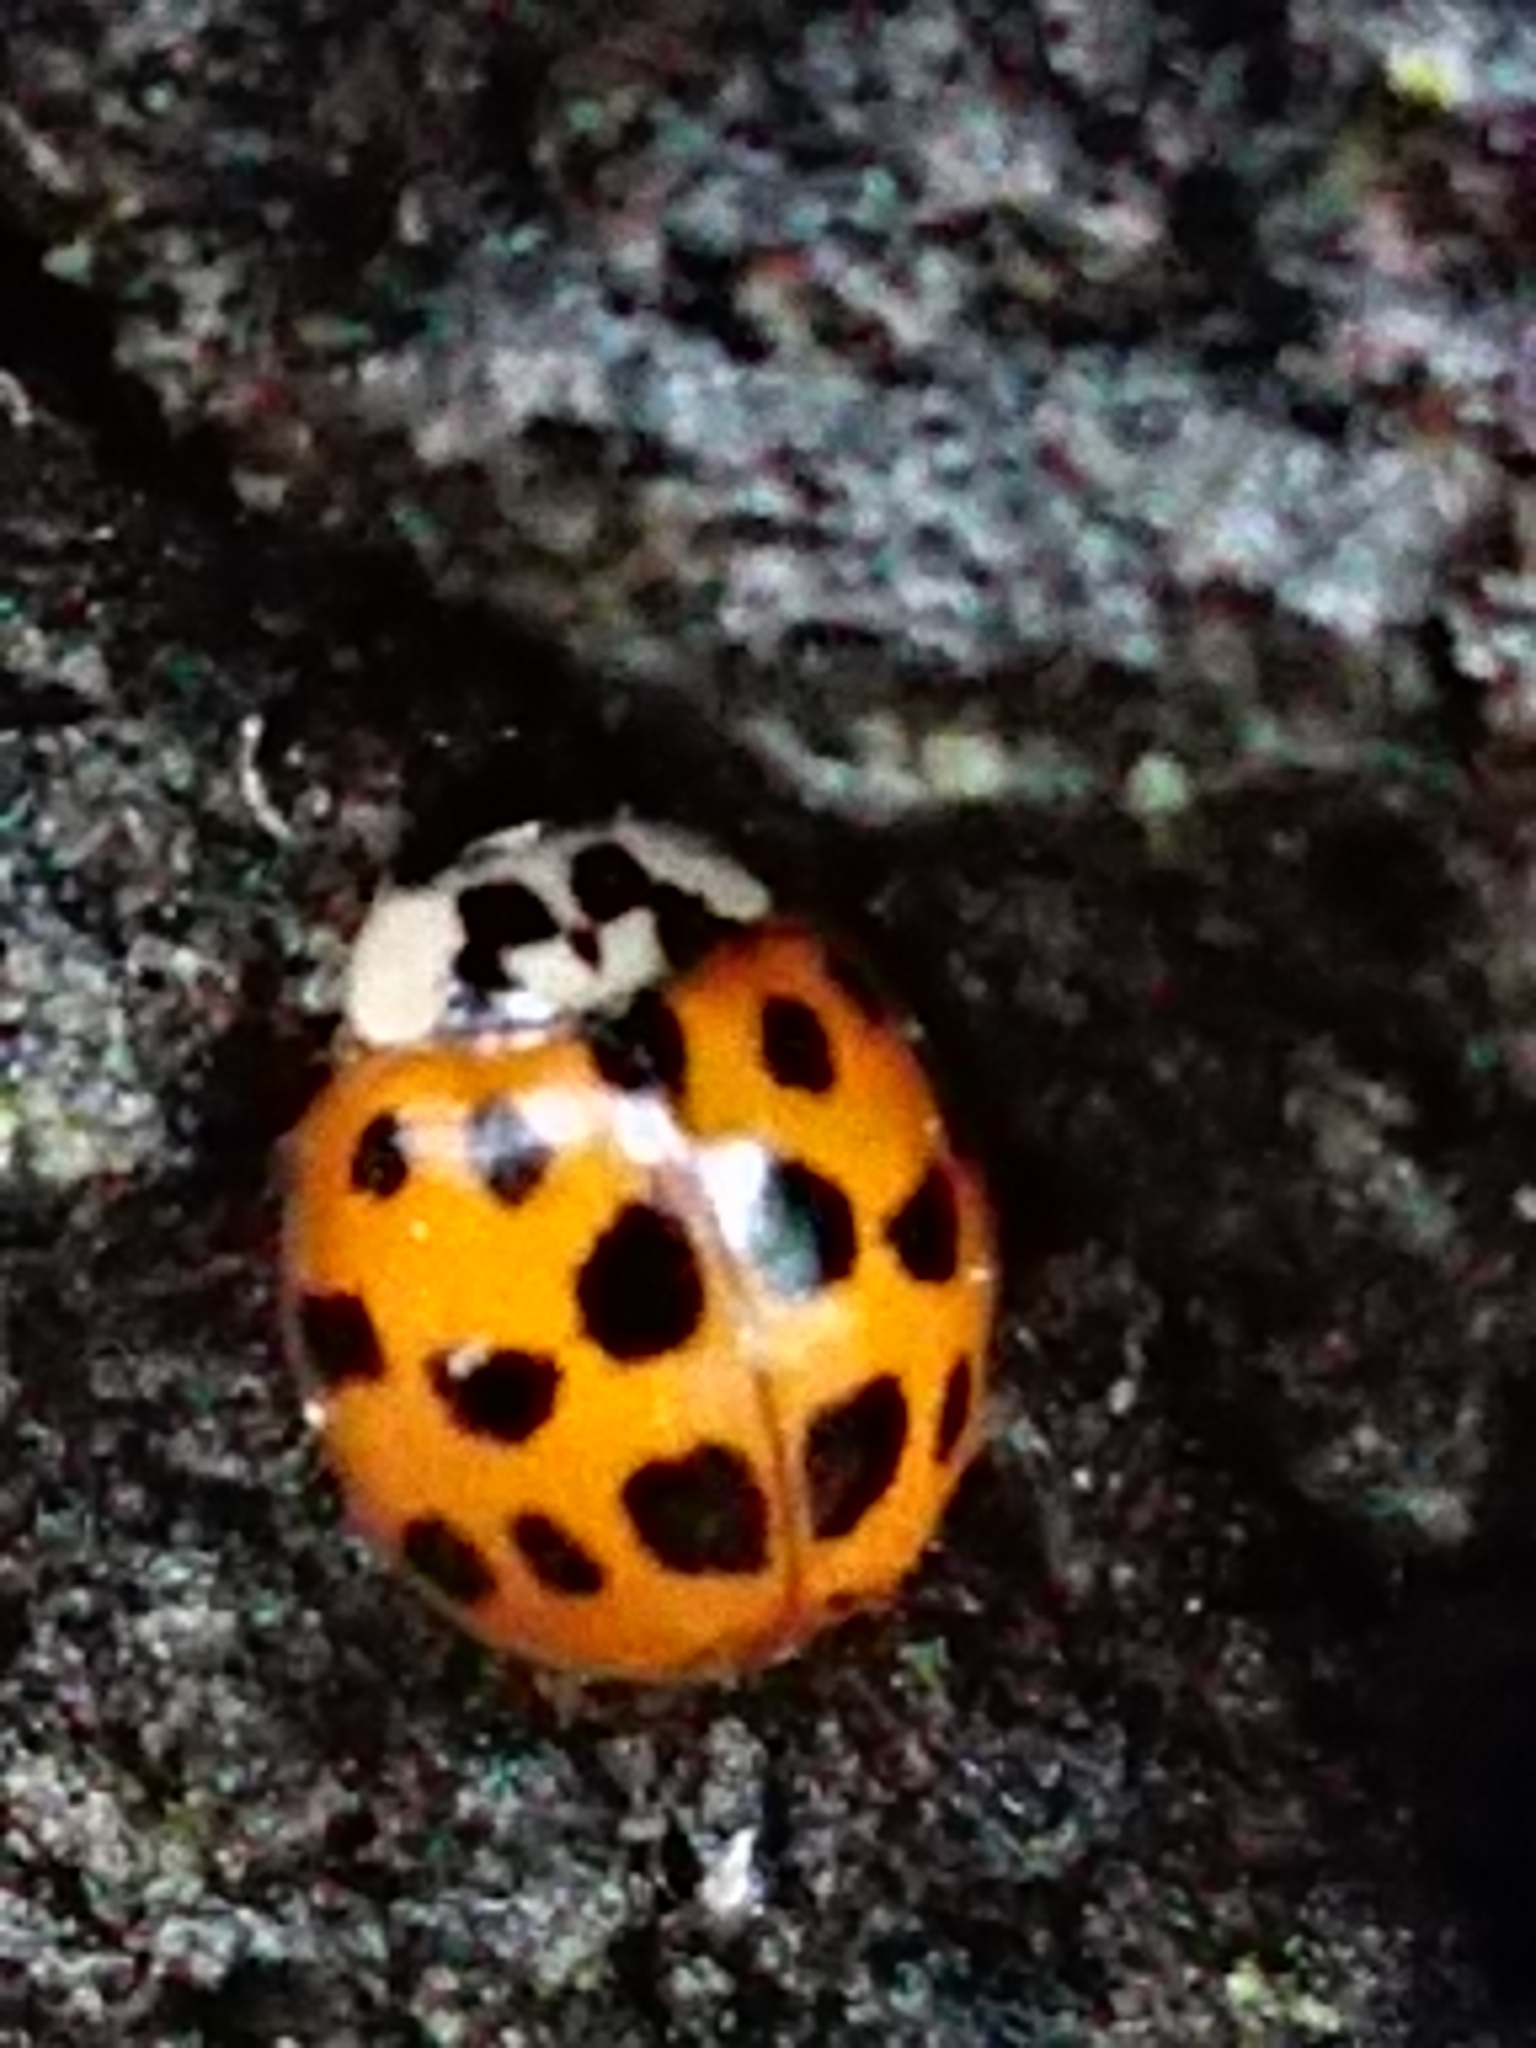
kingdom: Animalia
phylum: Arthropoda
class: Insecta
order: Coleoptera
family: Coccinellidae
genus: Harmonia
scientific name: Harmonia axyridis
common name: Harlequin ladybird
